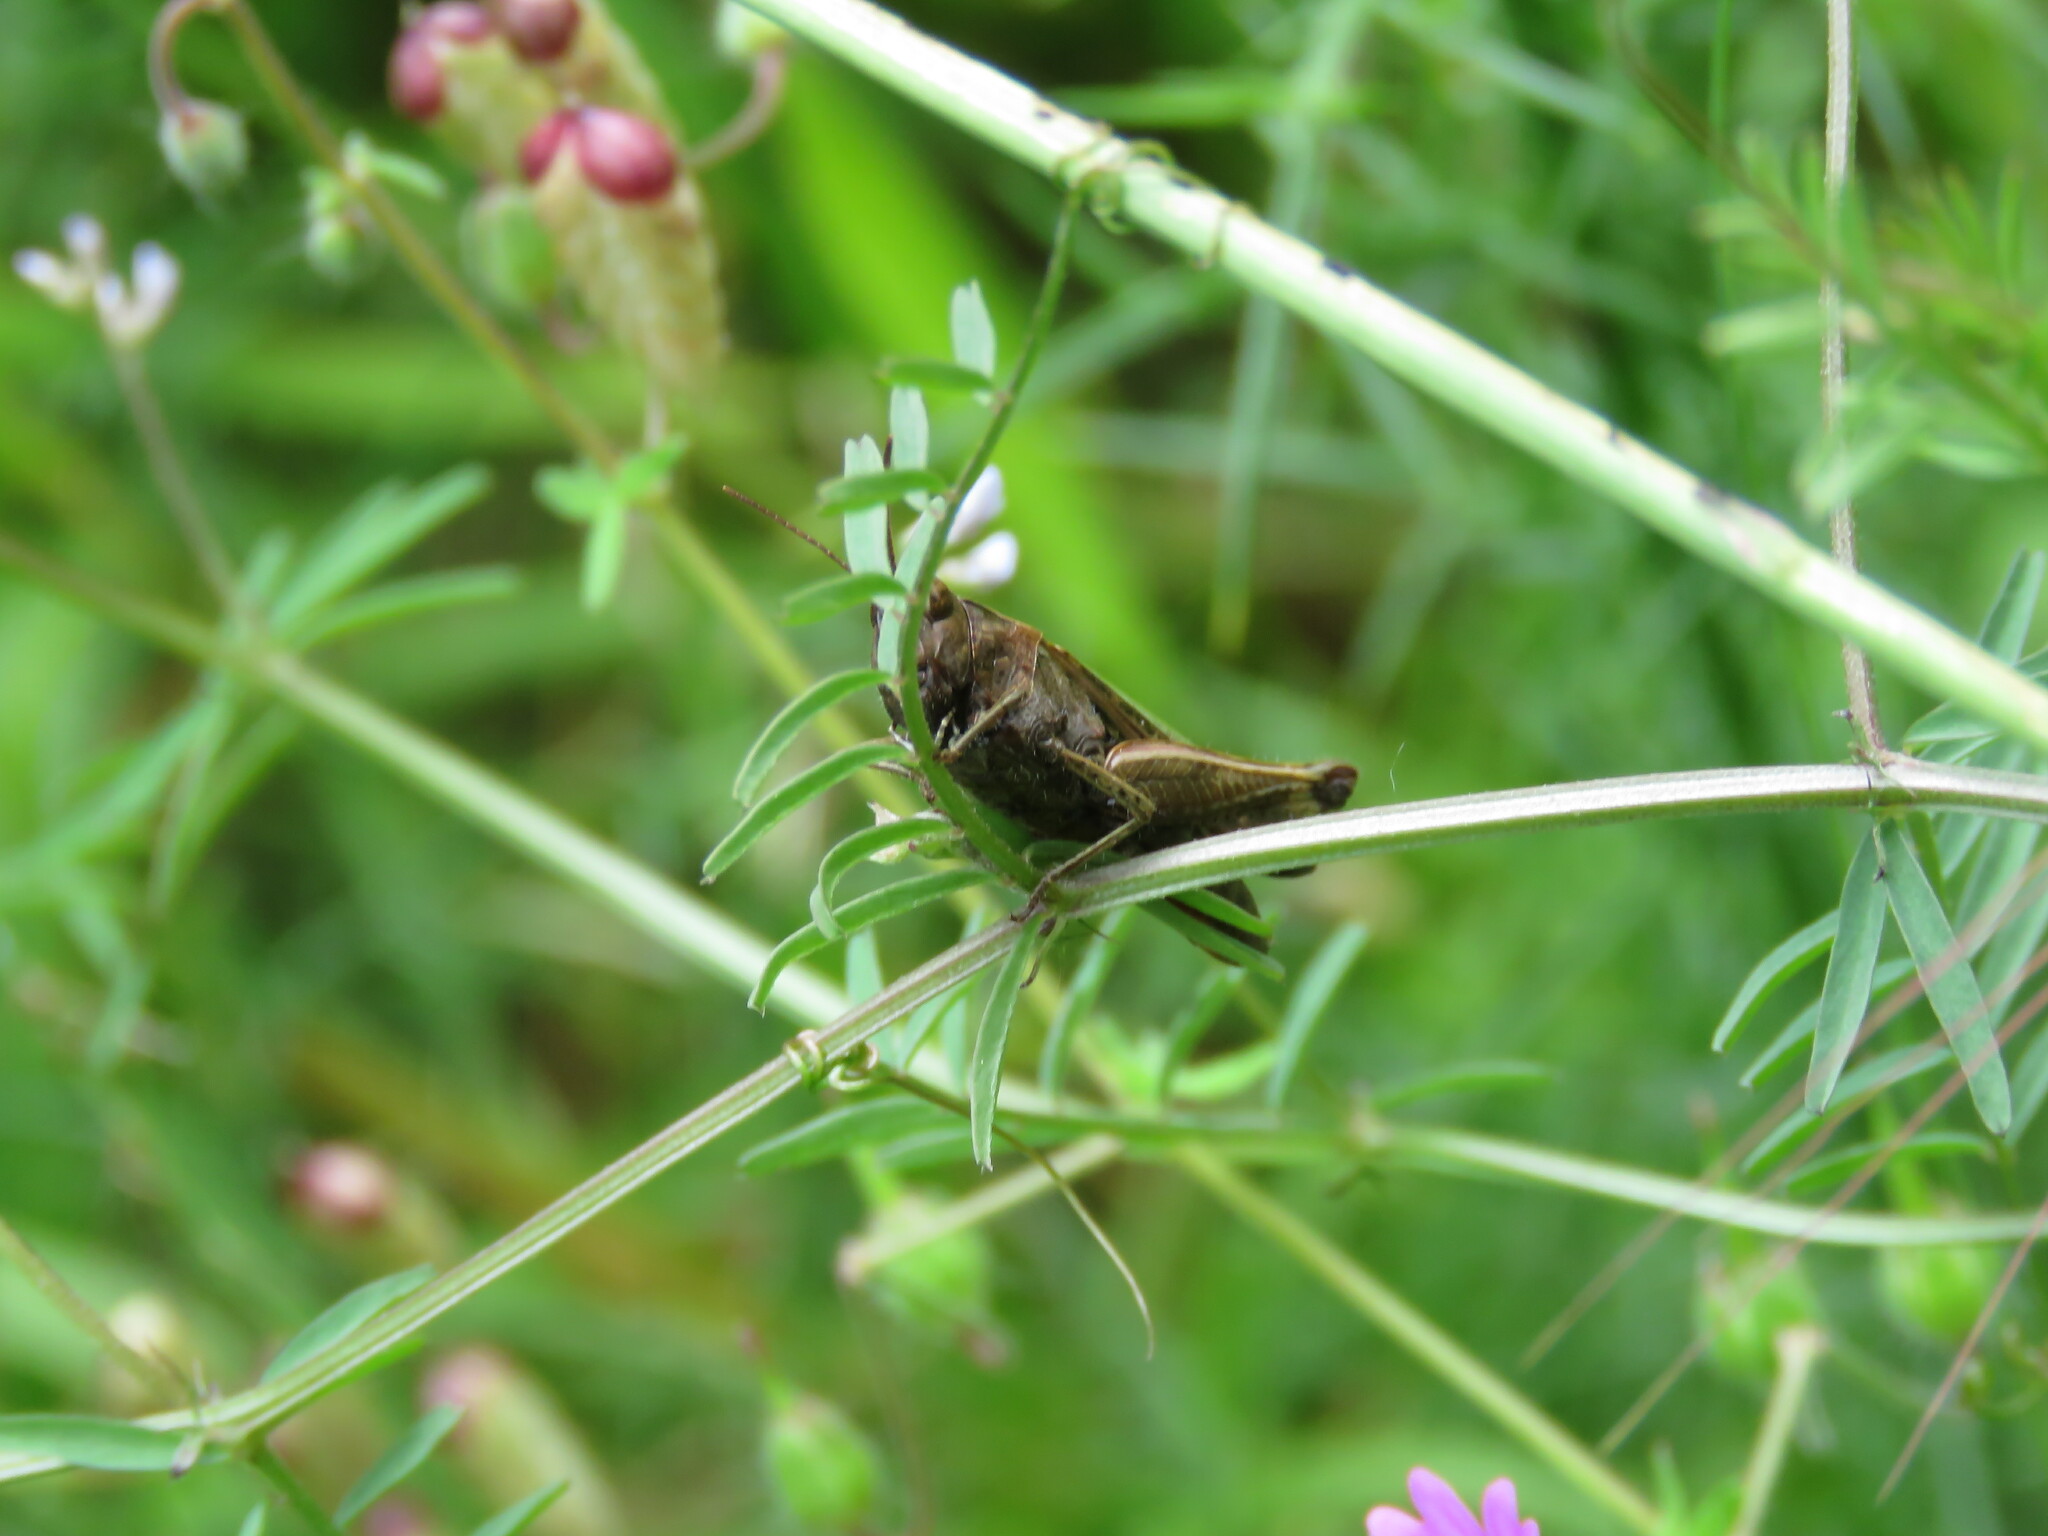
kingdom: Animalia
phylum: Arthropoda
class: Insecta
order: Orthoptera
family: Acrididae
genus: Omocestus
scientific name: Omocestus rufipes
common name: Woodland grasshopper
